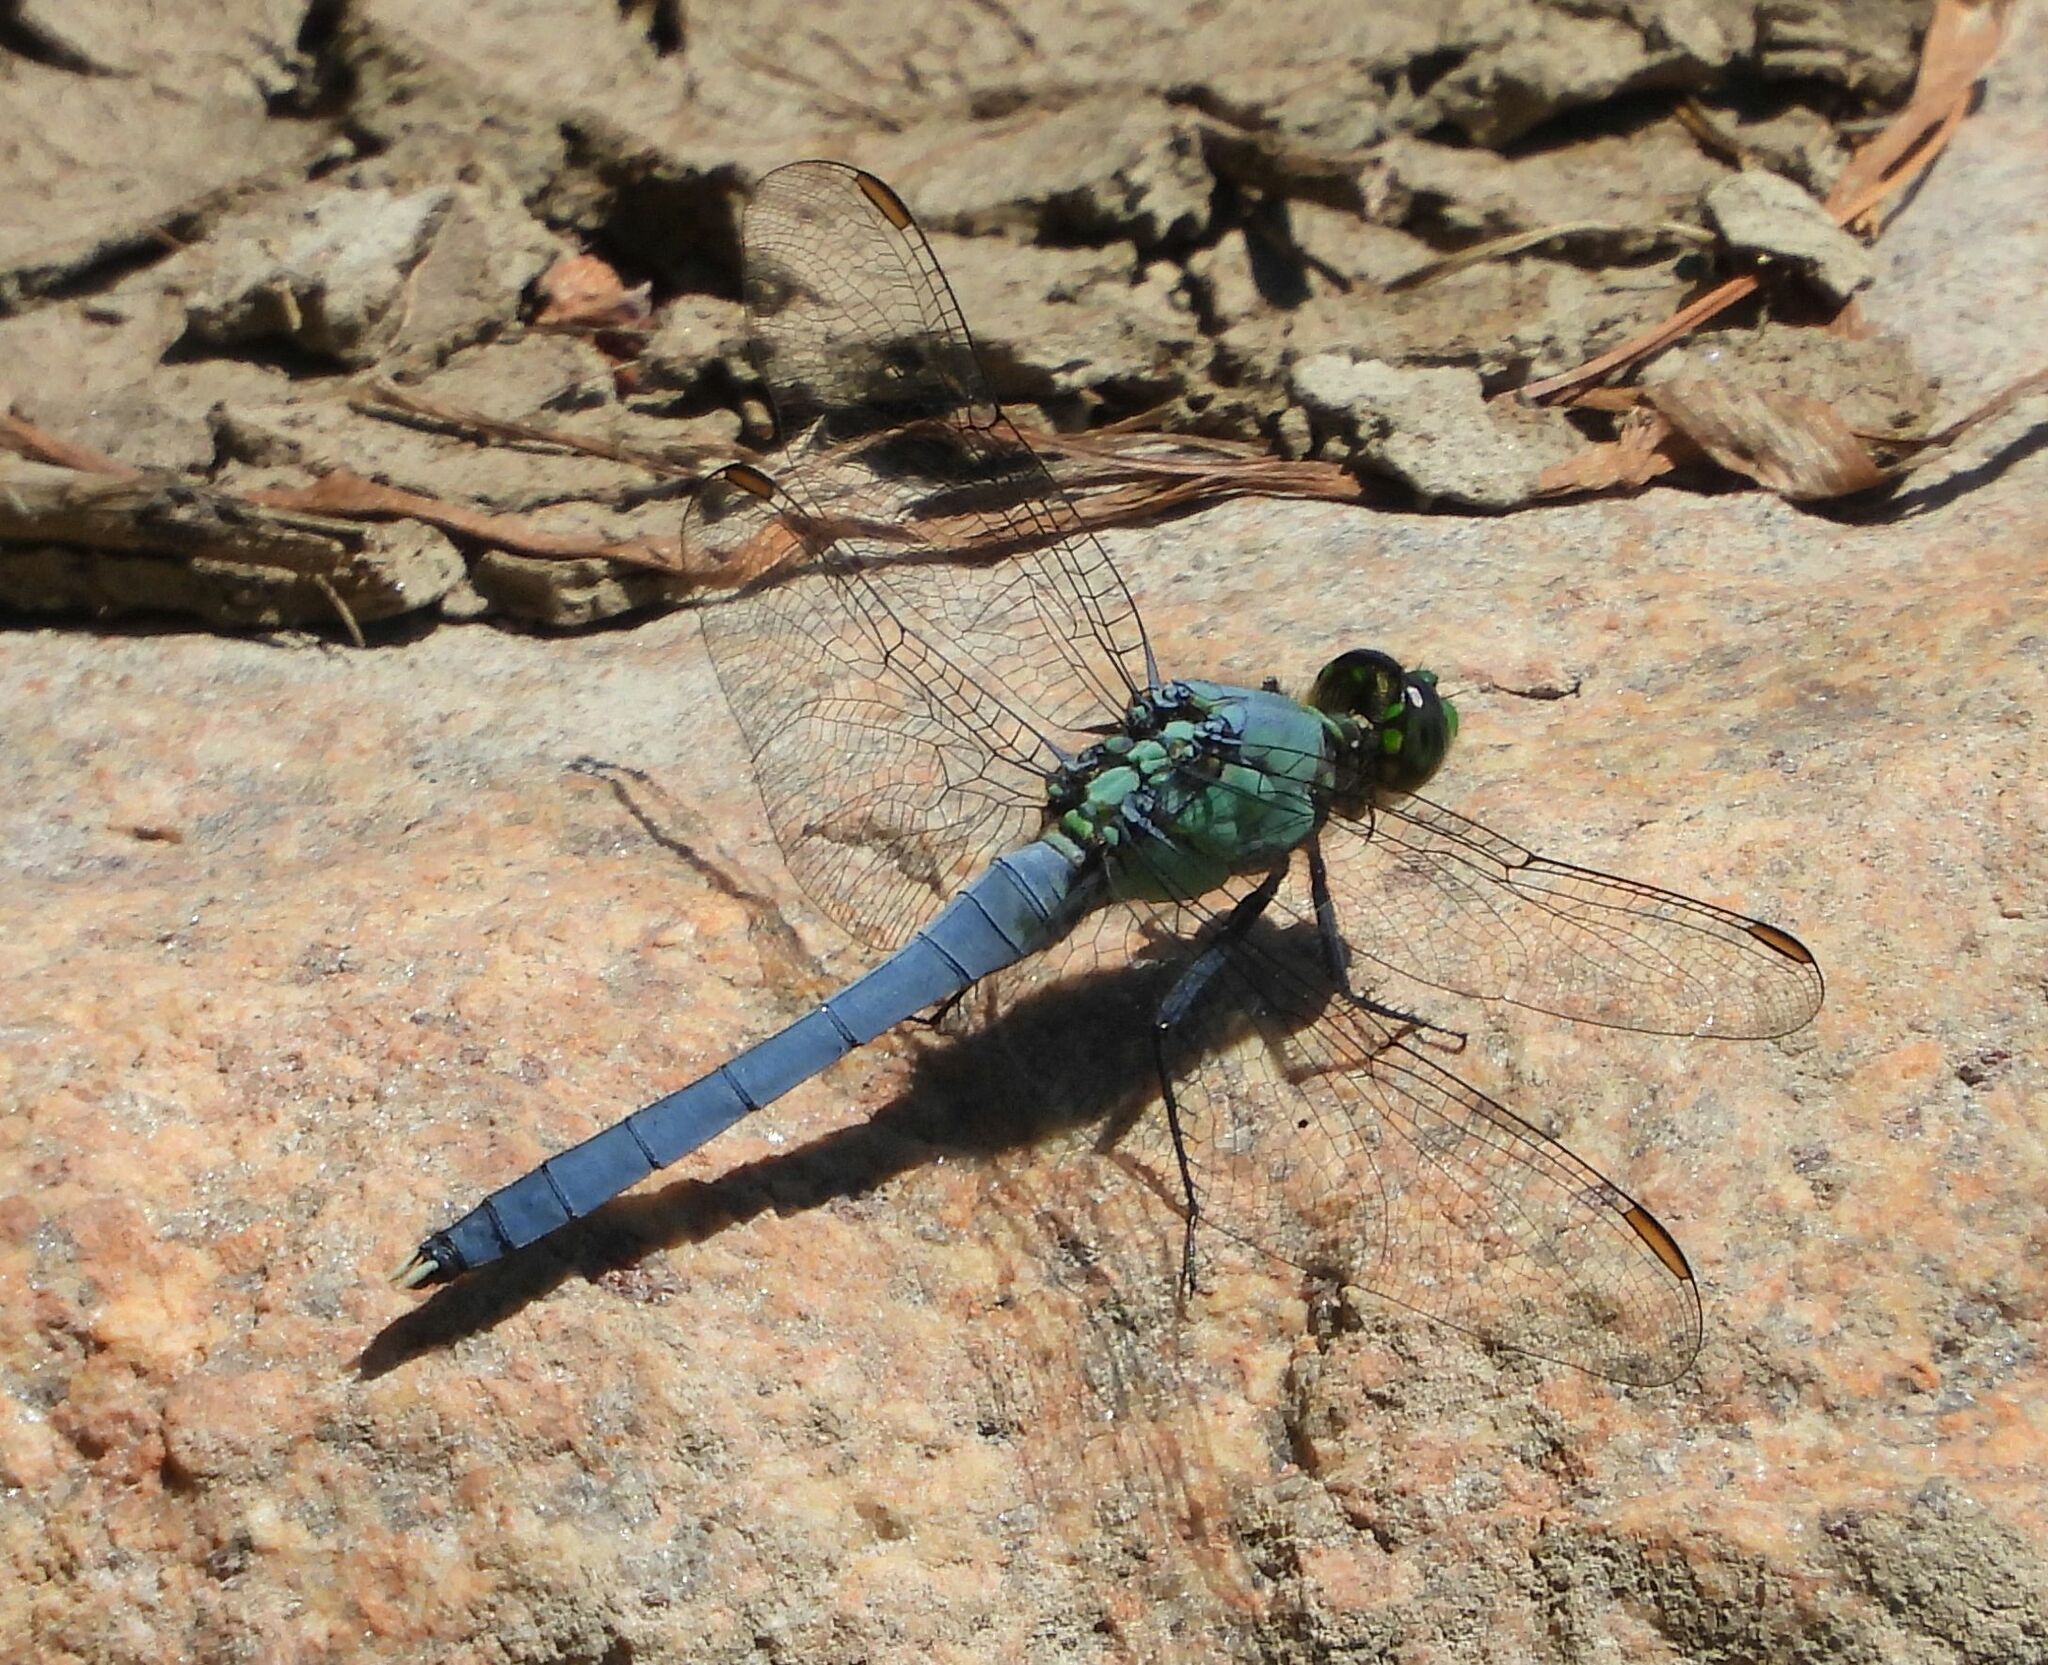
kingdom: Animalia
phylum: Arthropoda
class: Insecta
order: Odonata
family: Libellulidae
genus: Erythemis
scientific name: Erythemis simplicicollis
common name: Eastern pondhawk
